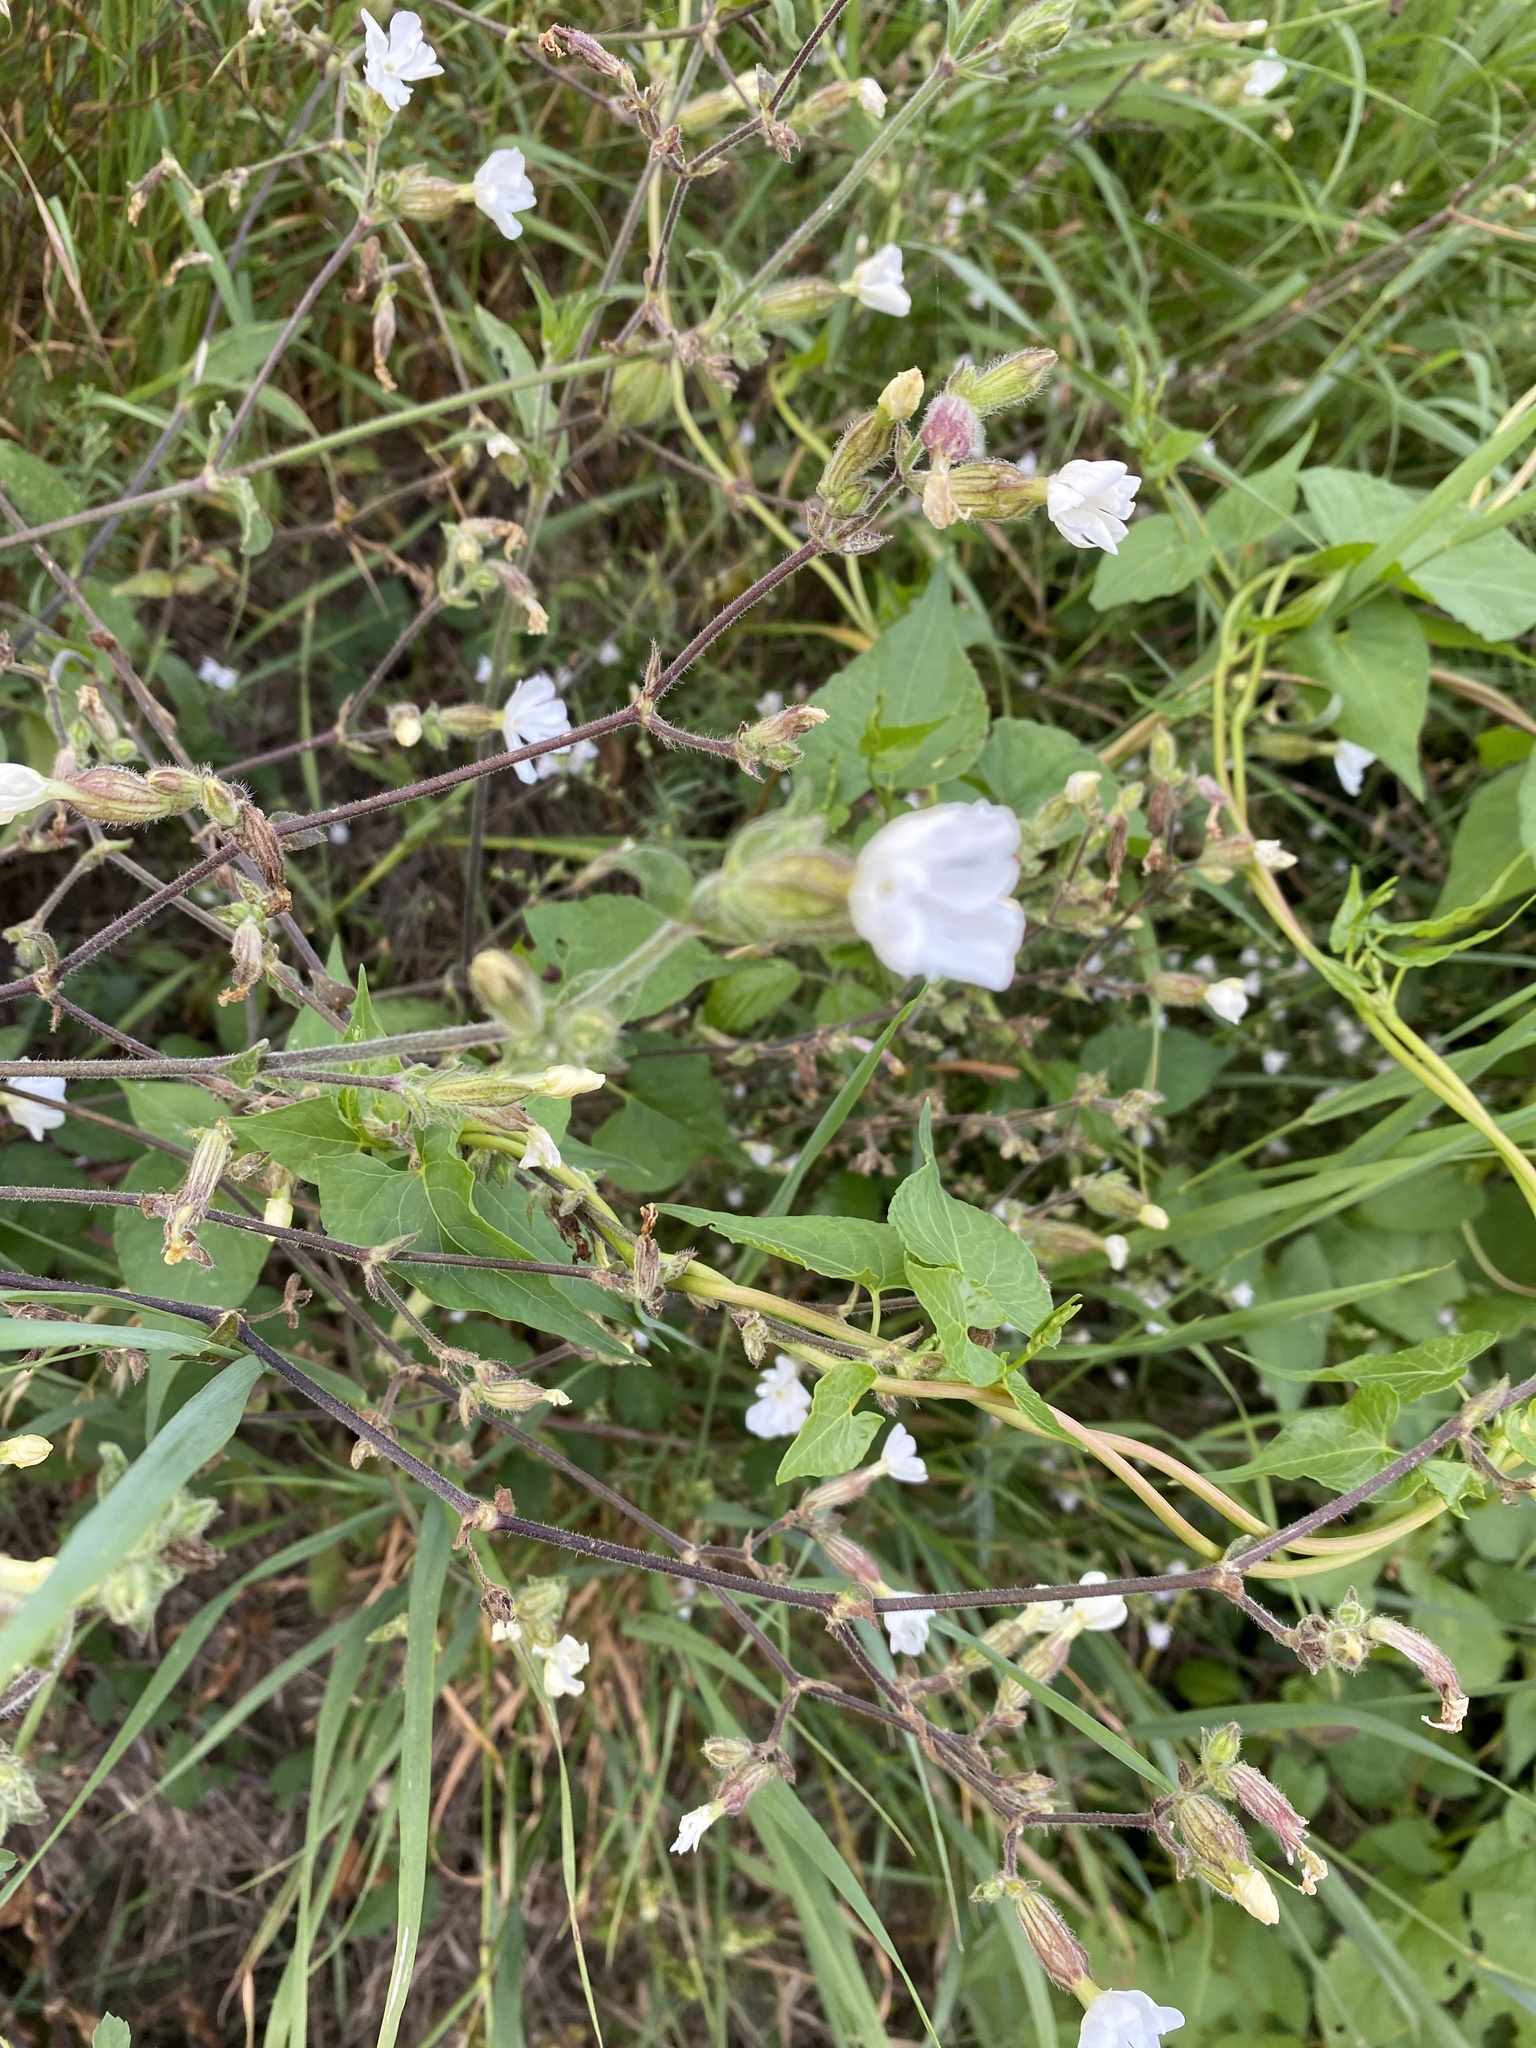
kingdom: Plantae
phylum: Tracheophyta
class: Magnoliopsida
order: Caryophyllales
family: Caryophyllaceae
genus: Silene
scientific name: Silene latifolia
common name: White campion
